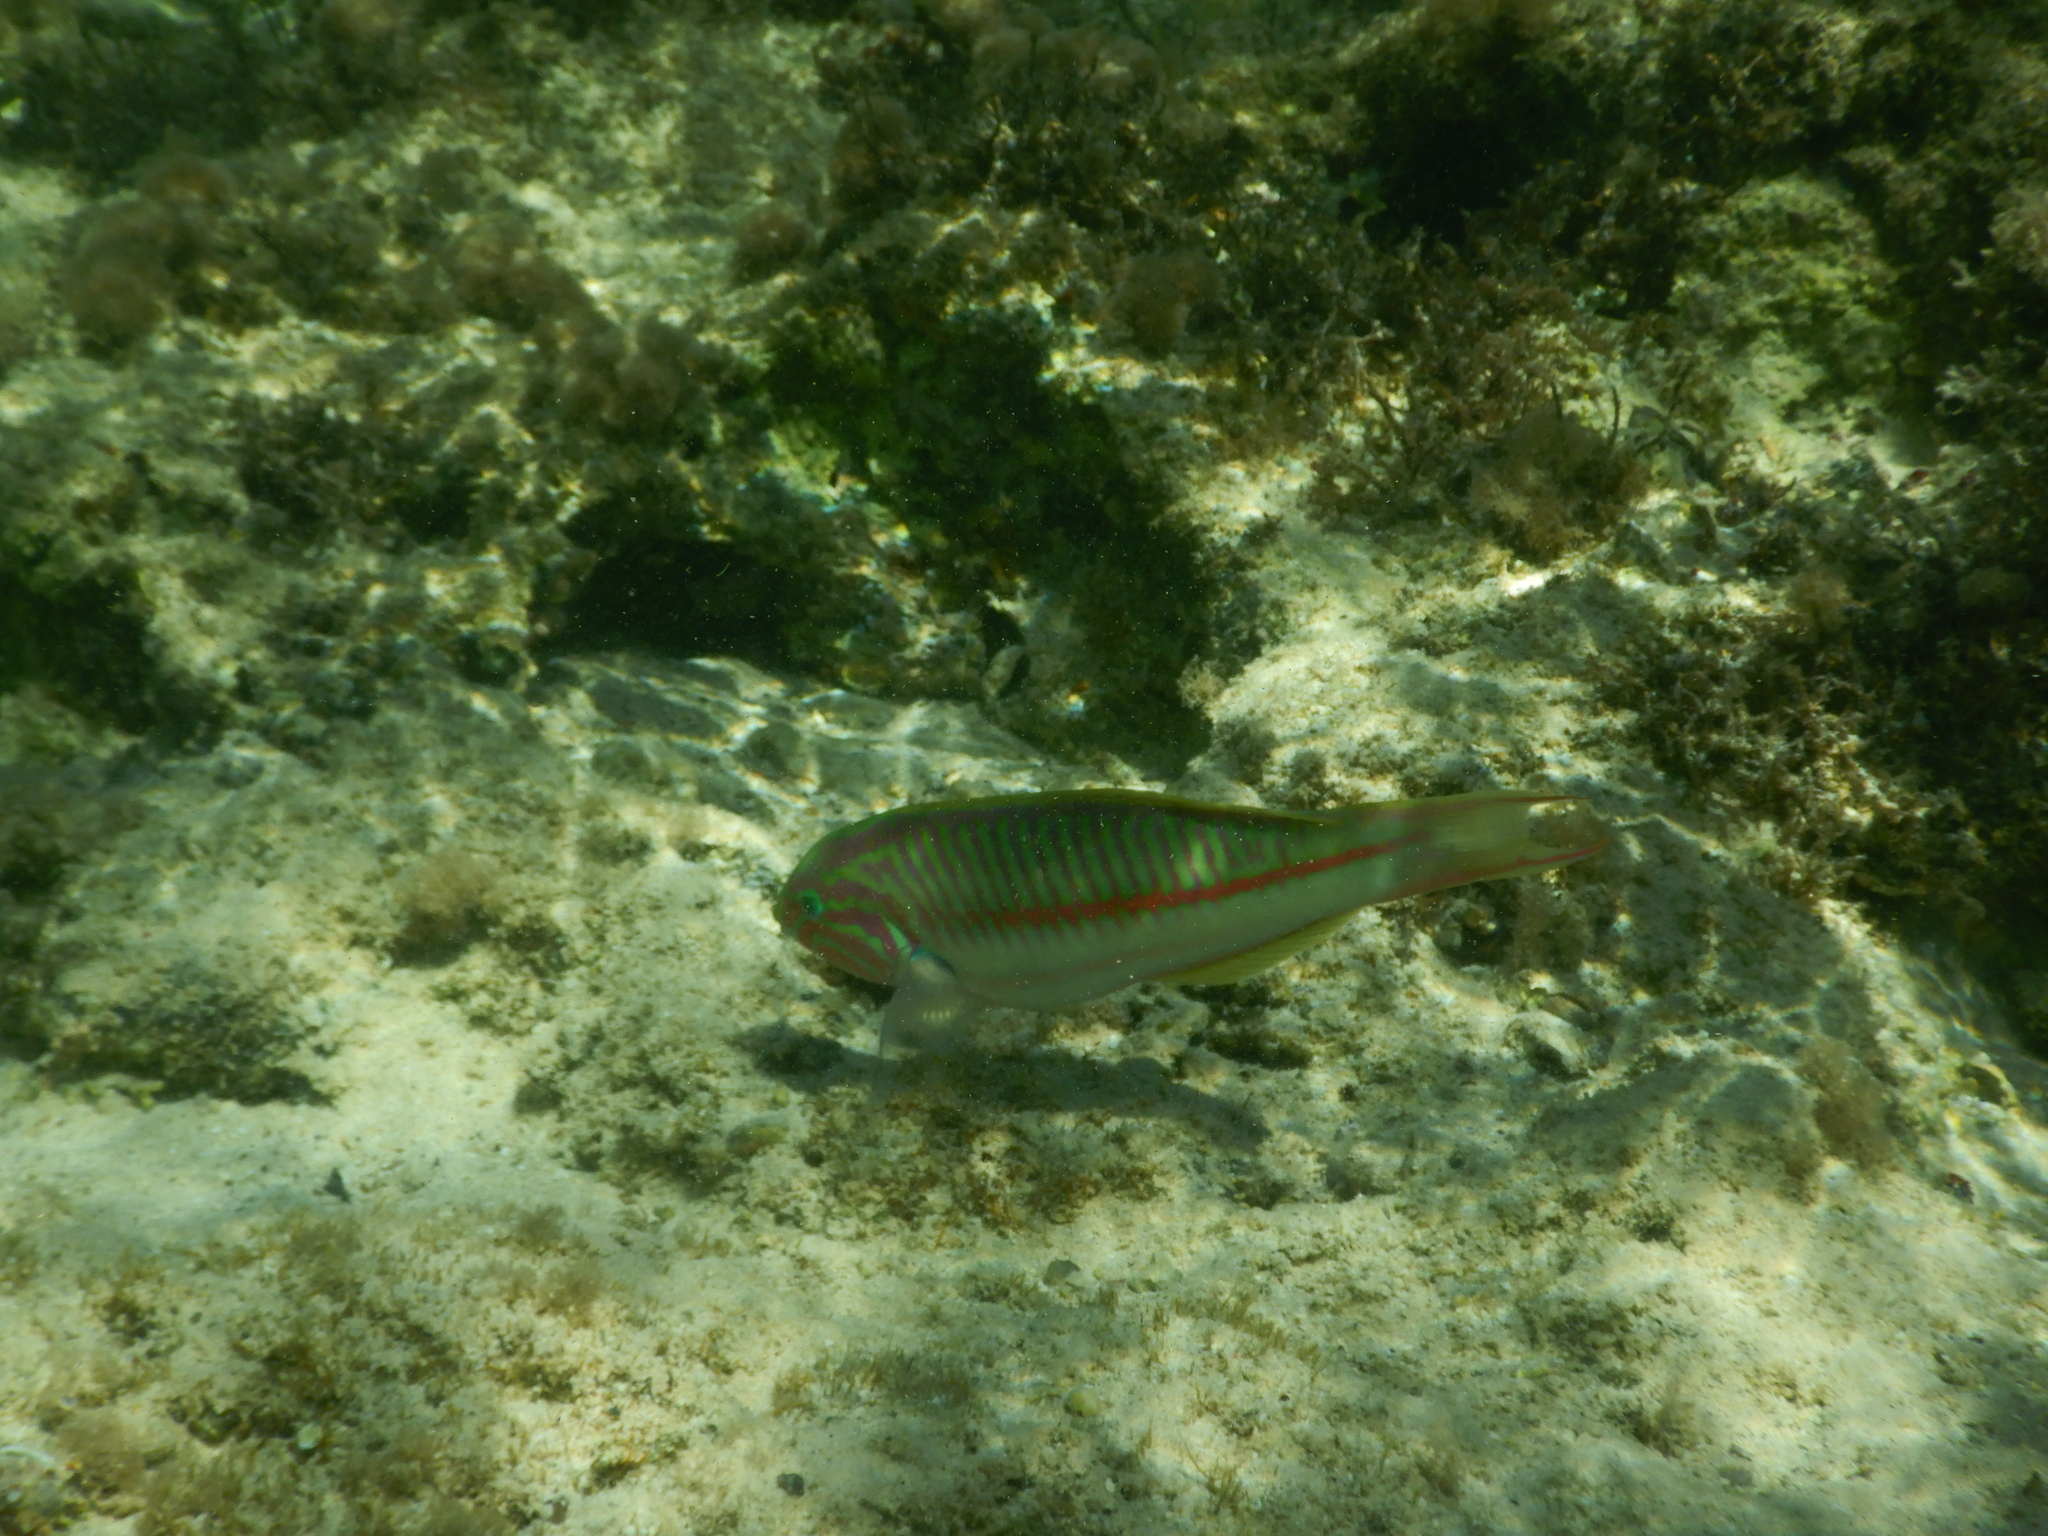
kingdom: Animalia
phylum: Chordata
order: Perciformes
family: Labridae
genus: Thalassoma
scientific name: Thalassoma rueppellii
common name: Klunzinger's wrasse
